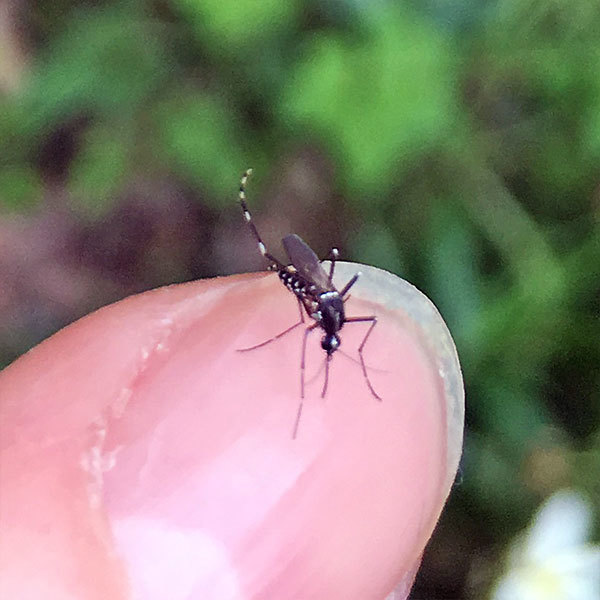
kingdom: Animalia
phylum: Arthropoda
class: Insecta
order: Diptera
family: Culicidae
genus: Aedes
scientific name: Aedes albopictus
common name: Tiger mosquito
